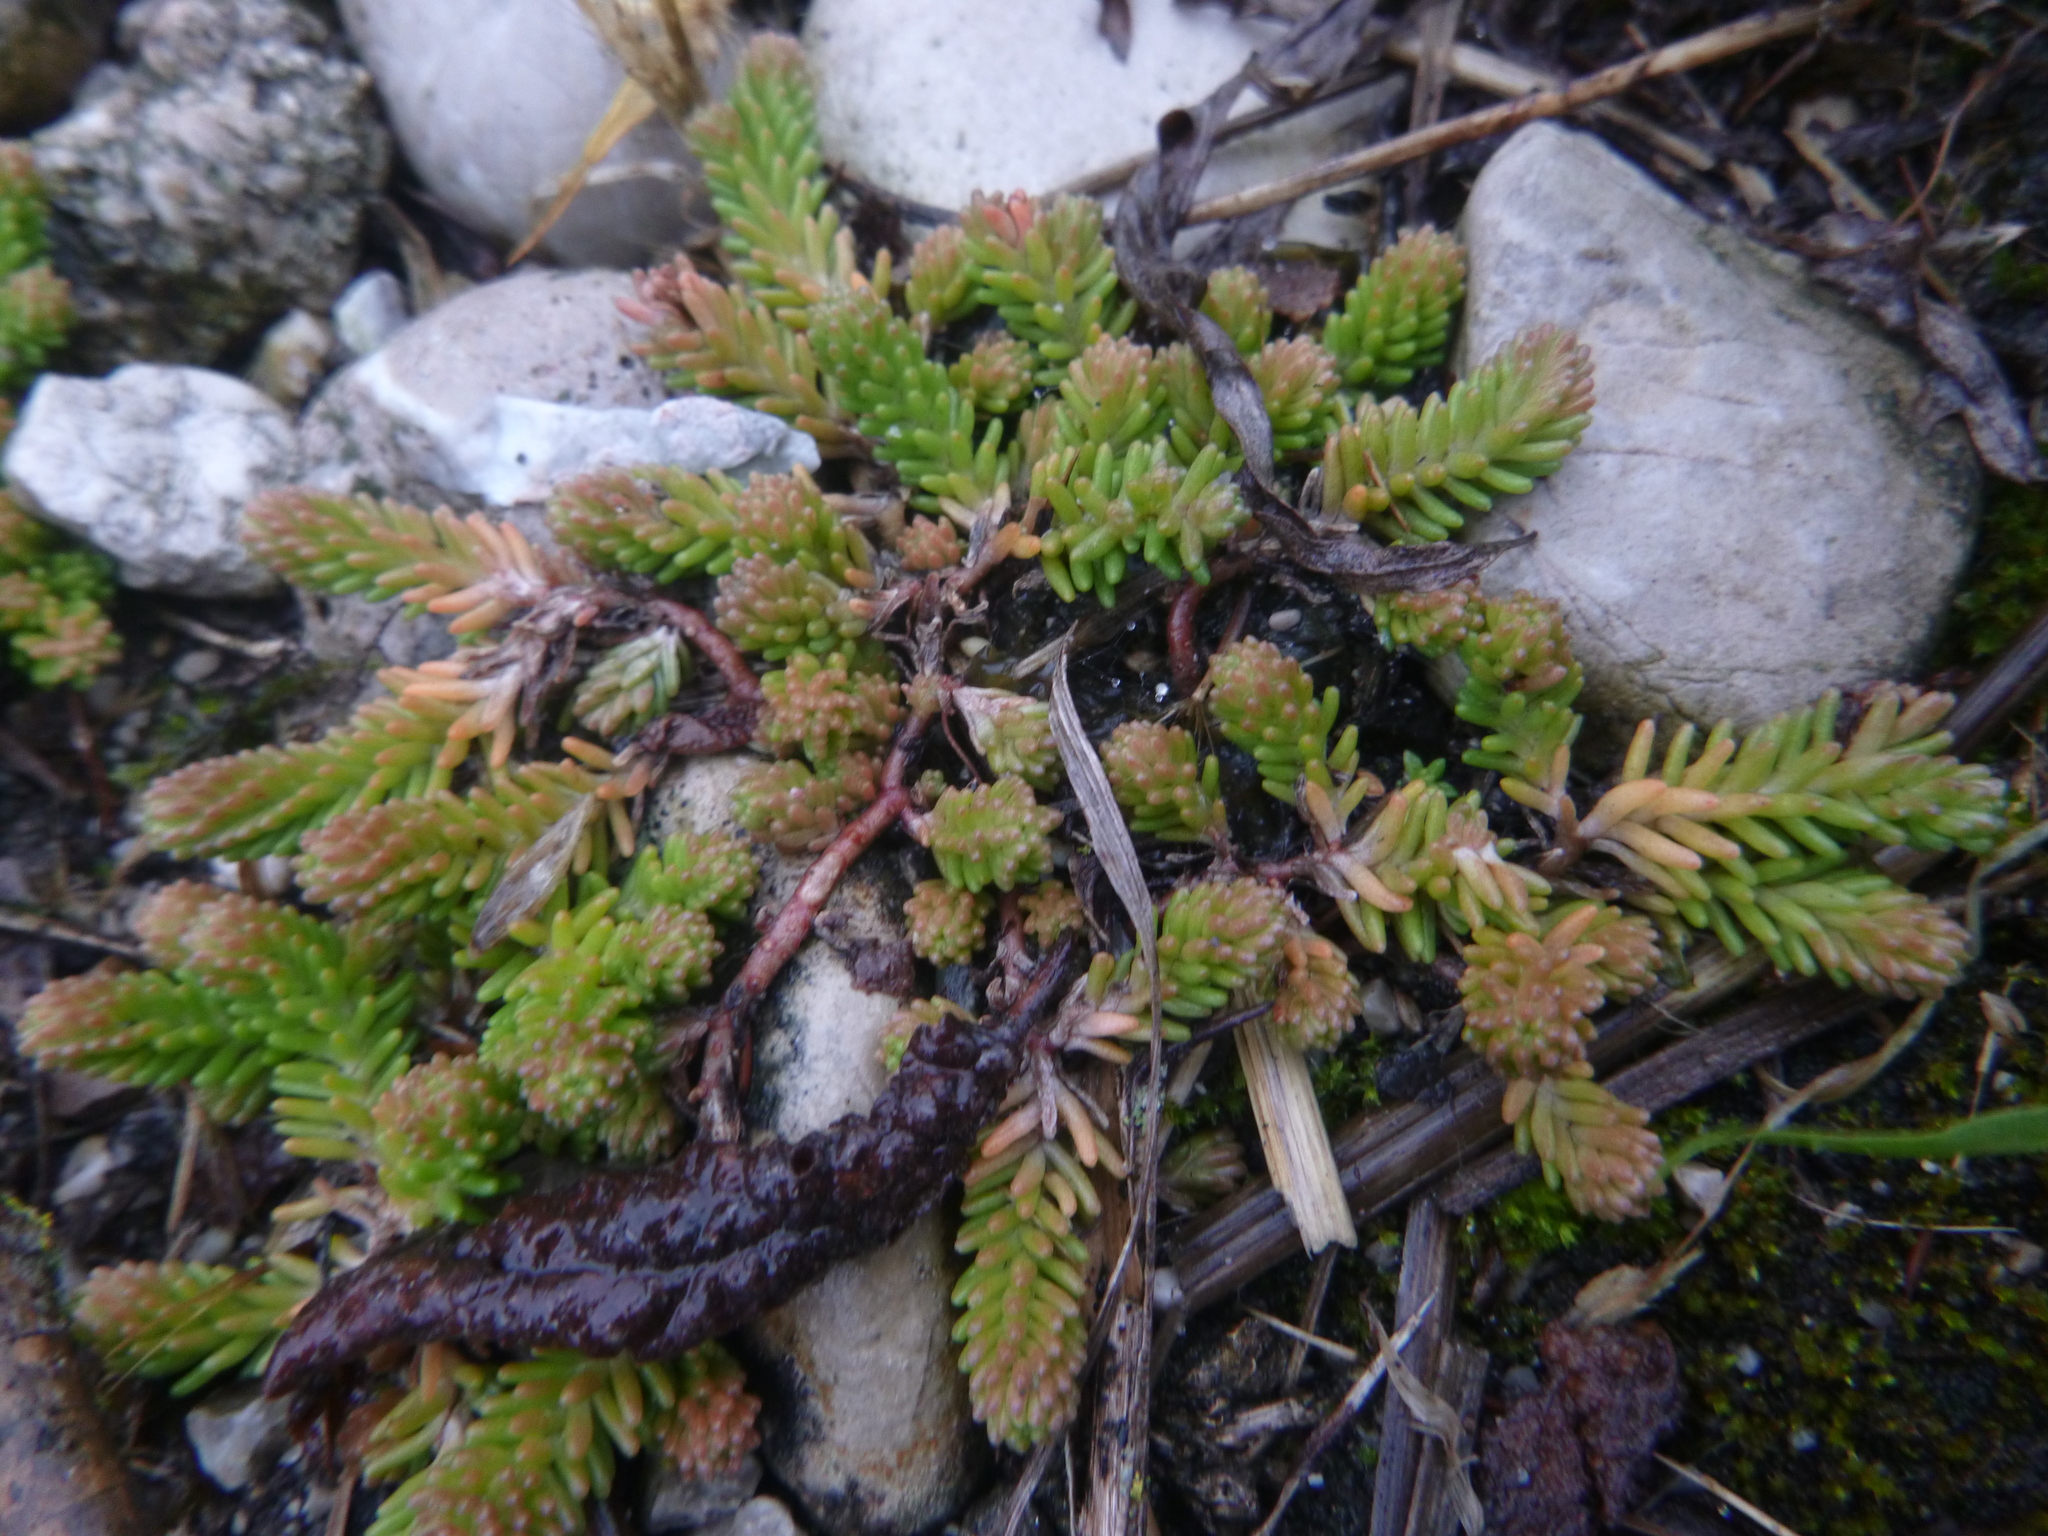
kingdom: Plantae
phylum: Tracheophyta
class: Magnoliopsida
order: Saxifragales
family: Crassulaceae
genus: Sedum
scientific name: Sedum sexangulare
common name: Tasteless stonecrop
